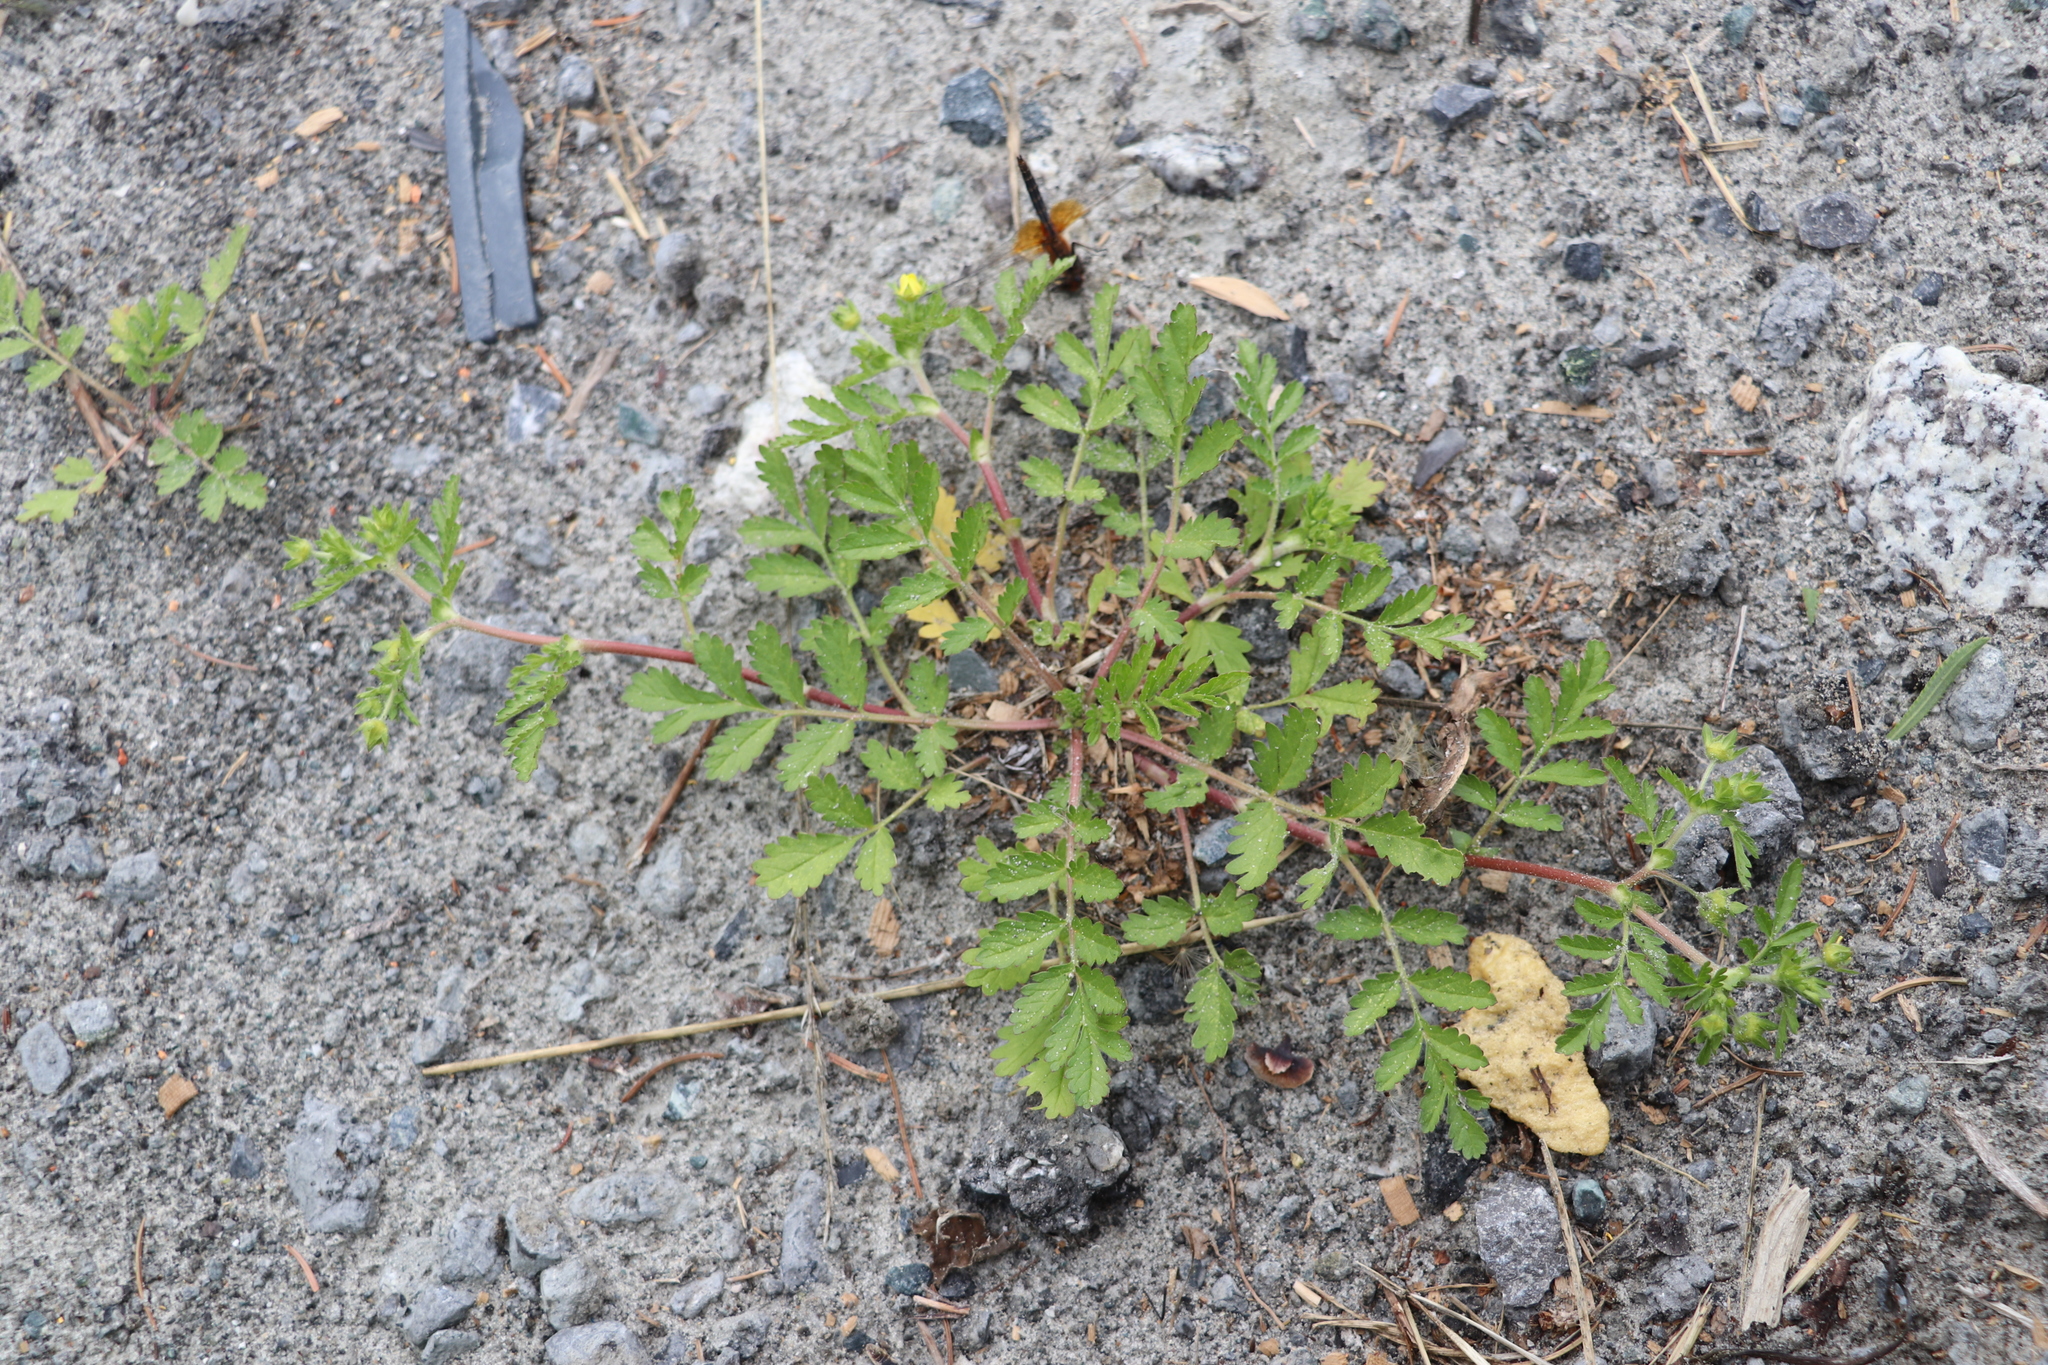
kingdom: Plantae
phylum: Tracheophyta
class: Magnoliopsida
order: Rosales
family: Rosaceae
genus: Potentilla
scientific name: Potentilla supina
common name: Prostrate cinquefoil
